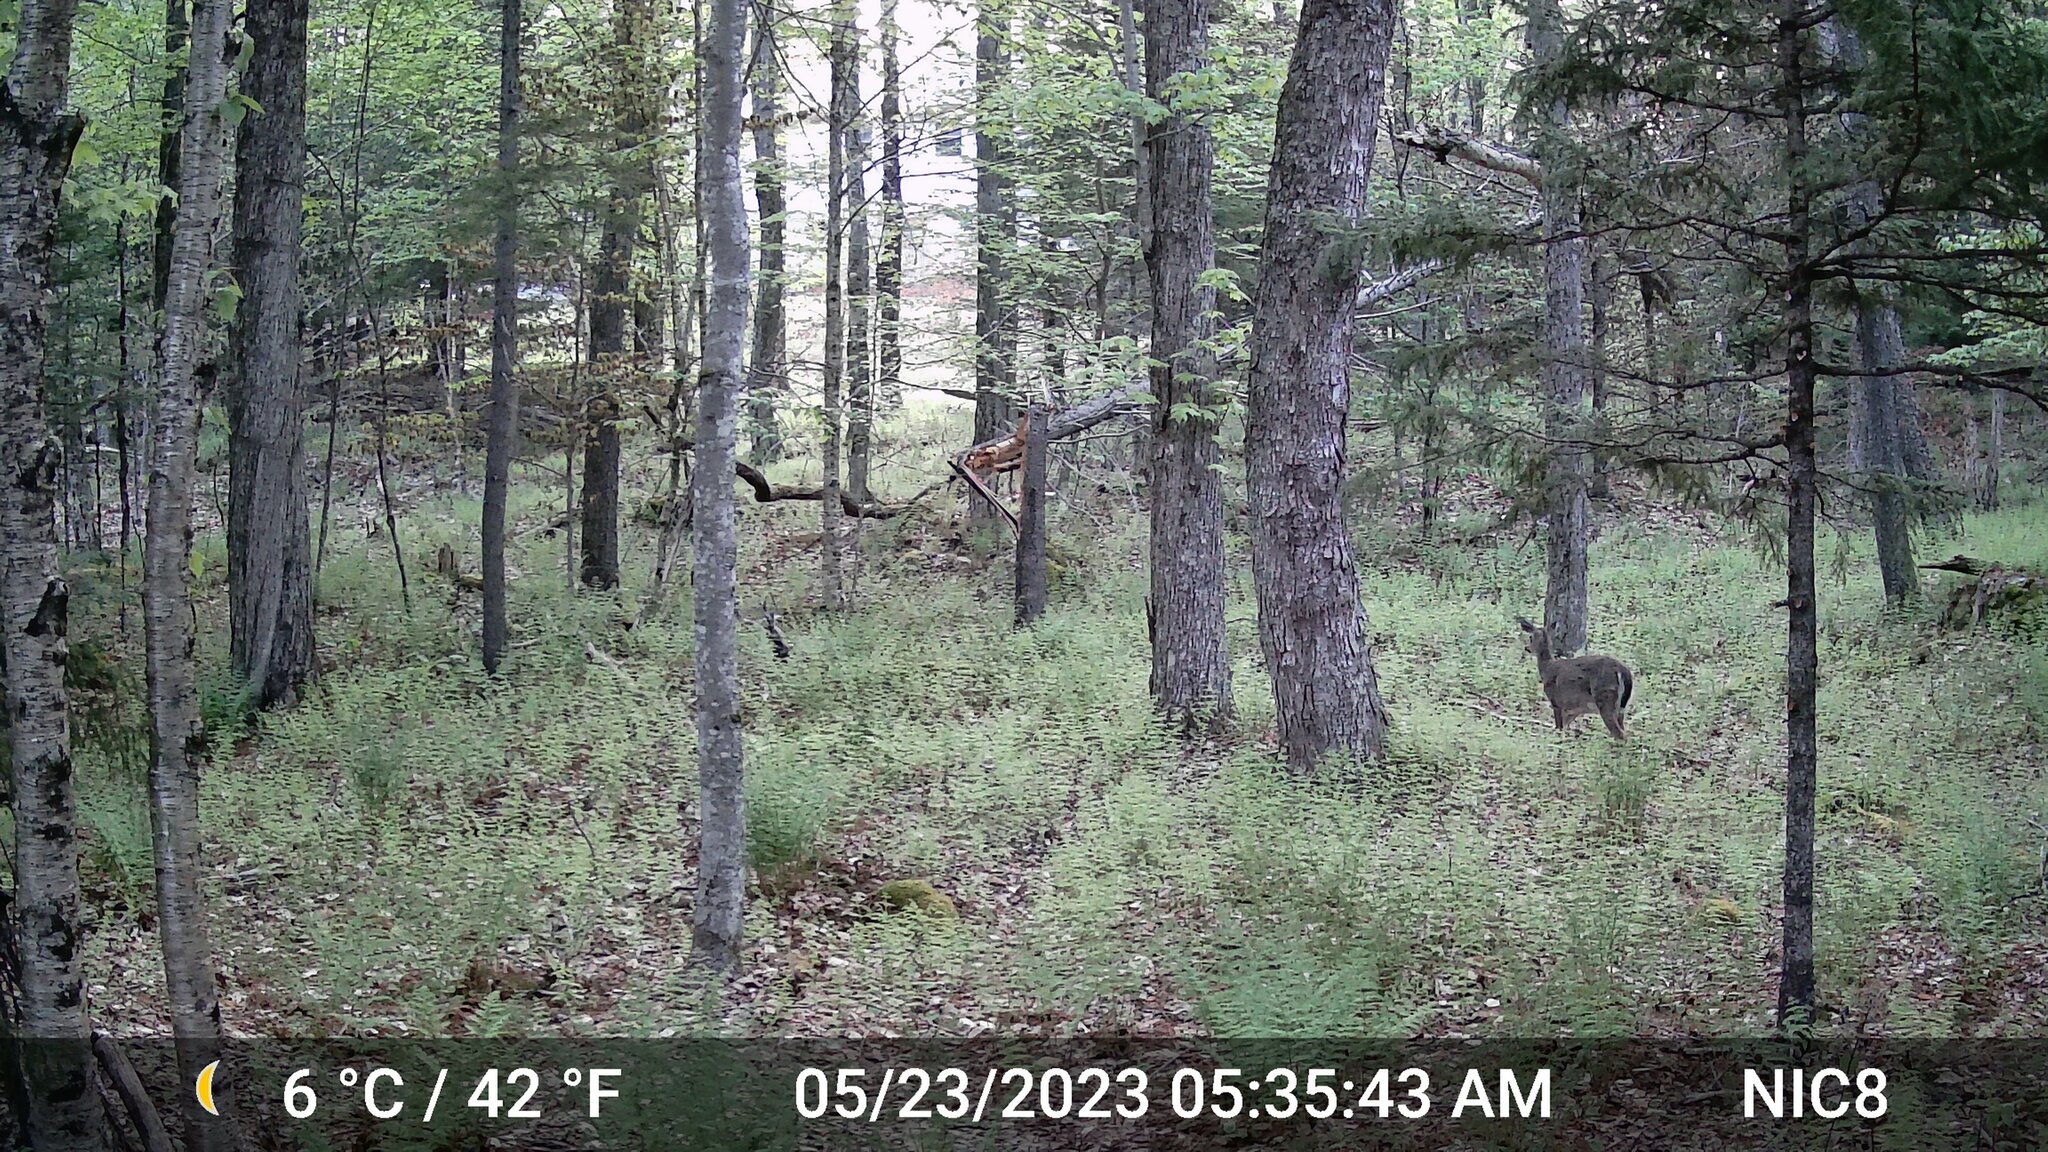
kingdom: Animalia
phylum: Chordata
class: Mammalia
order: Artiodactyla
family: Cervidae
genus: Odocoileus
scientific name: Odocoileus virginianus
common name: White-tailed deer
